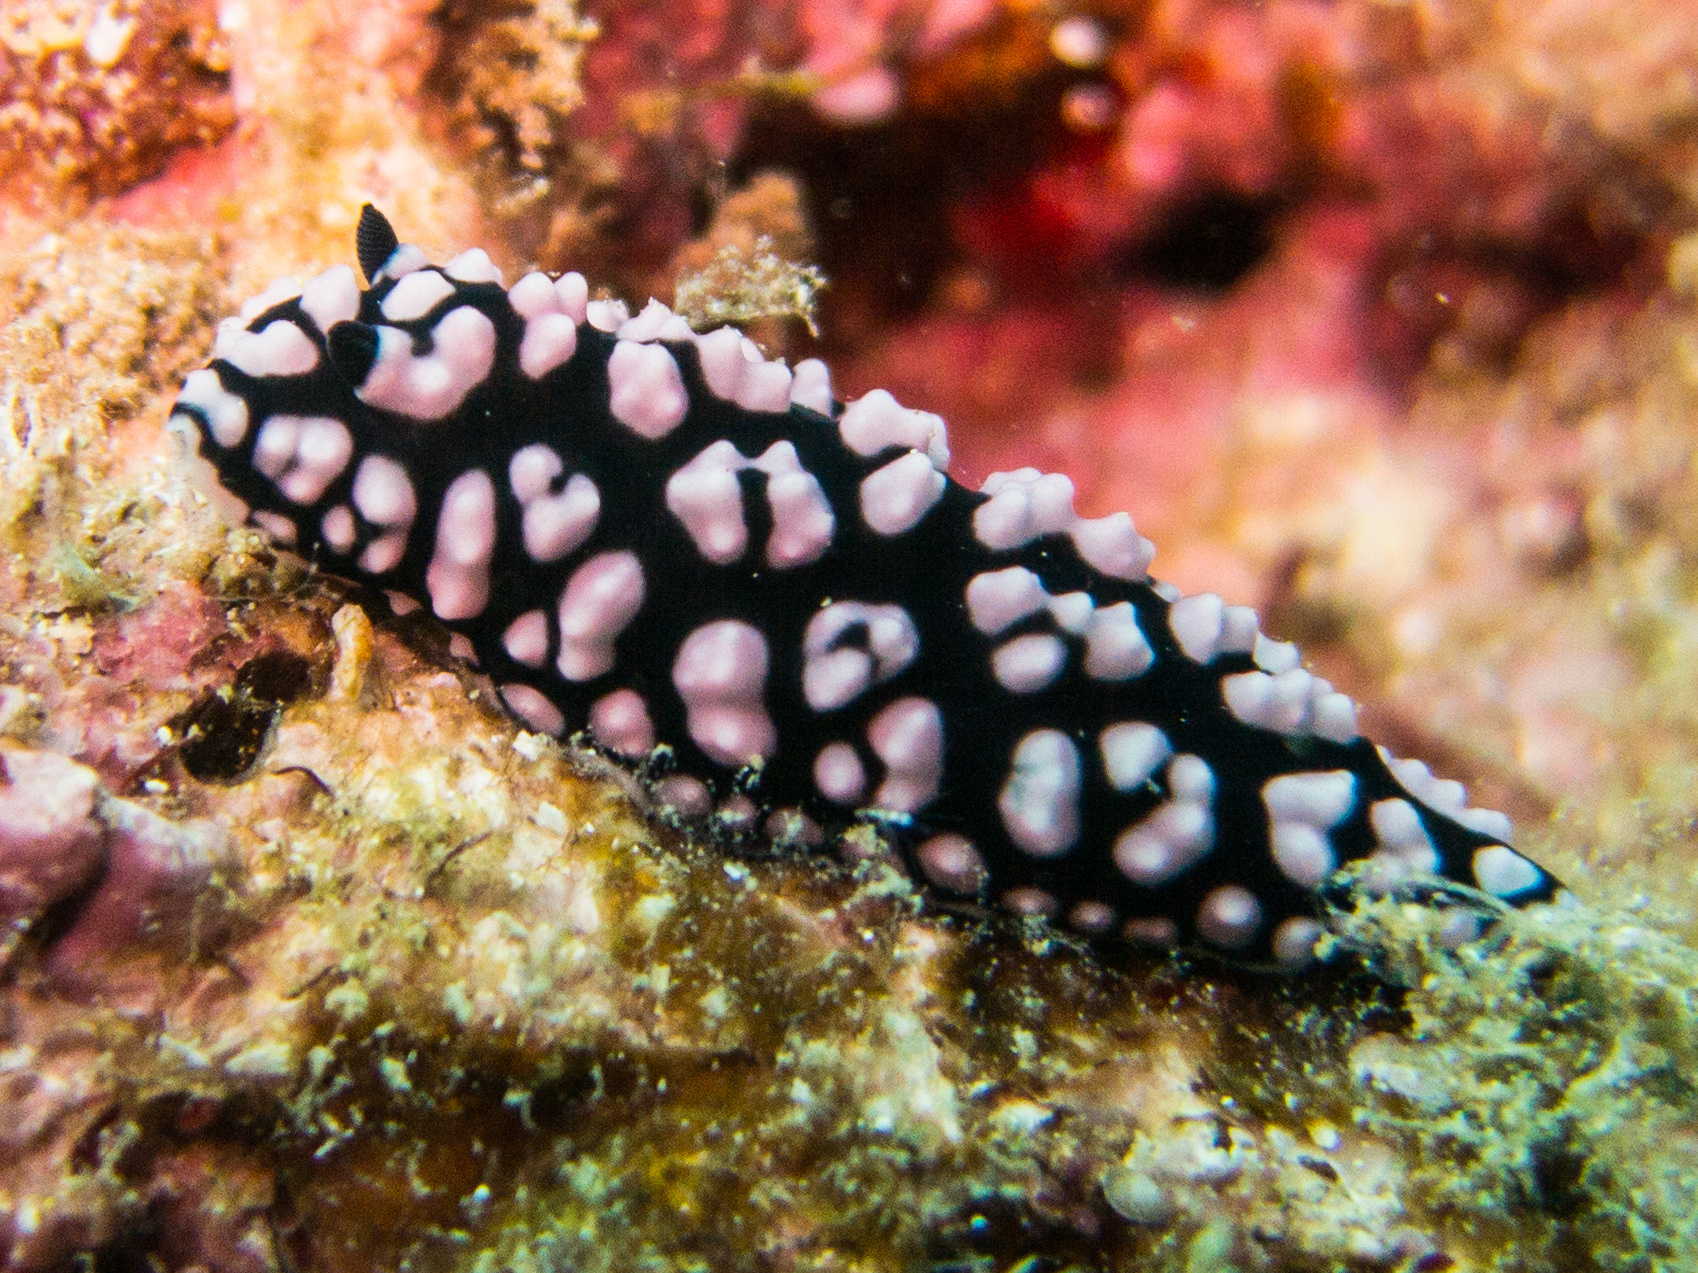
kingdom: Animalia
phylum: Mollusca
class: Gastropoda
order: Nudibranchia
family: Phyllidiidae
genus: Phyllidiella
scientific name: Phyllidiella pustulosa
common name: Pustular phyllidia
